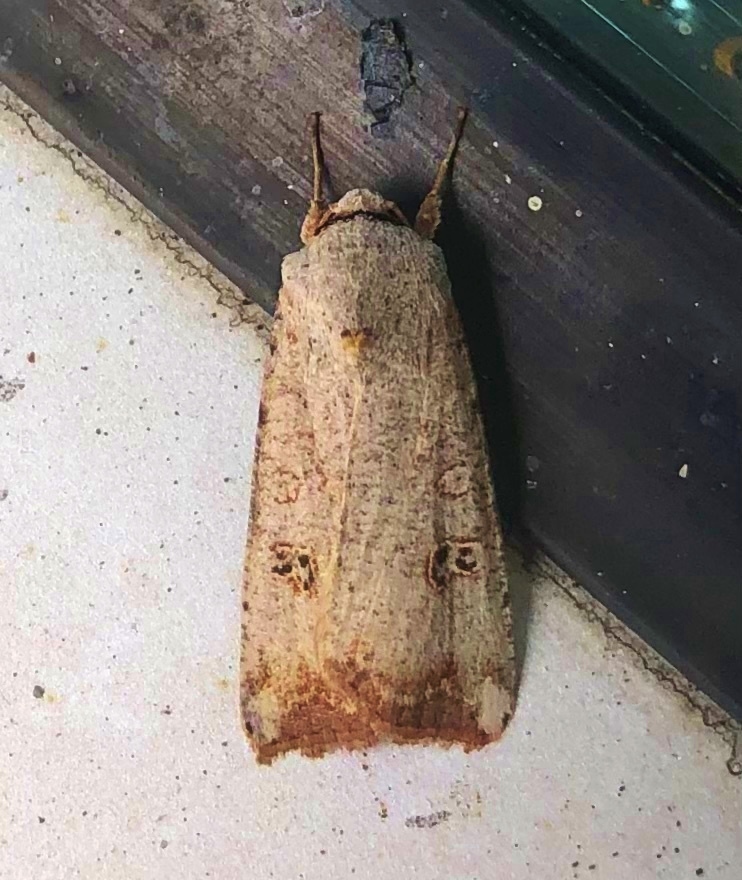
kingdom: Animalia
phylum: Arthropoda
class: Insecta
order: Lepidoptera
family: Noctuidae
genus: Anicla
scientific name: Anicla infecta
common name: Green cutworm
